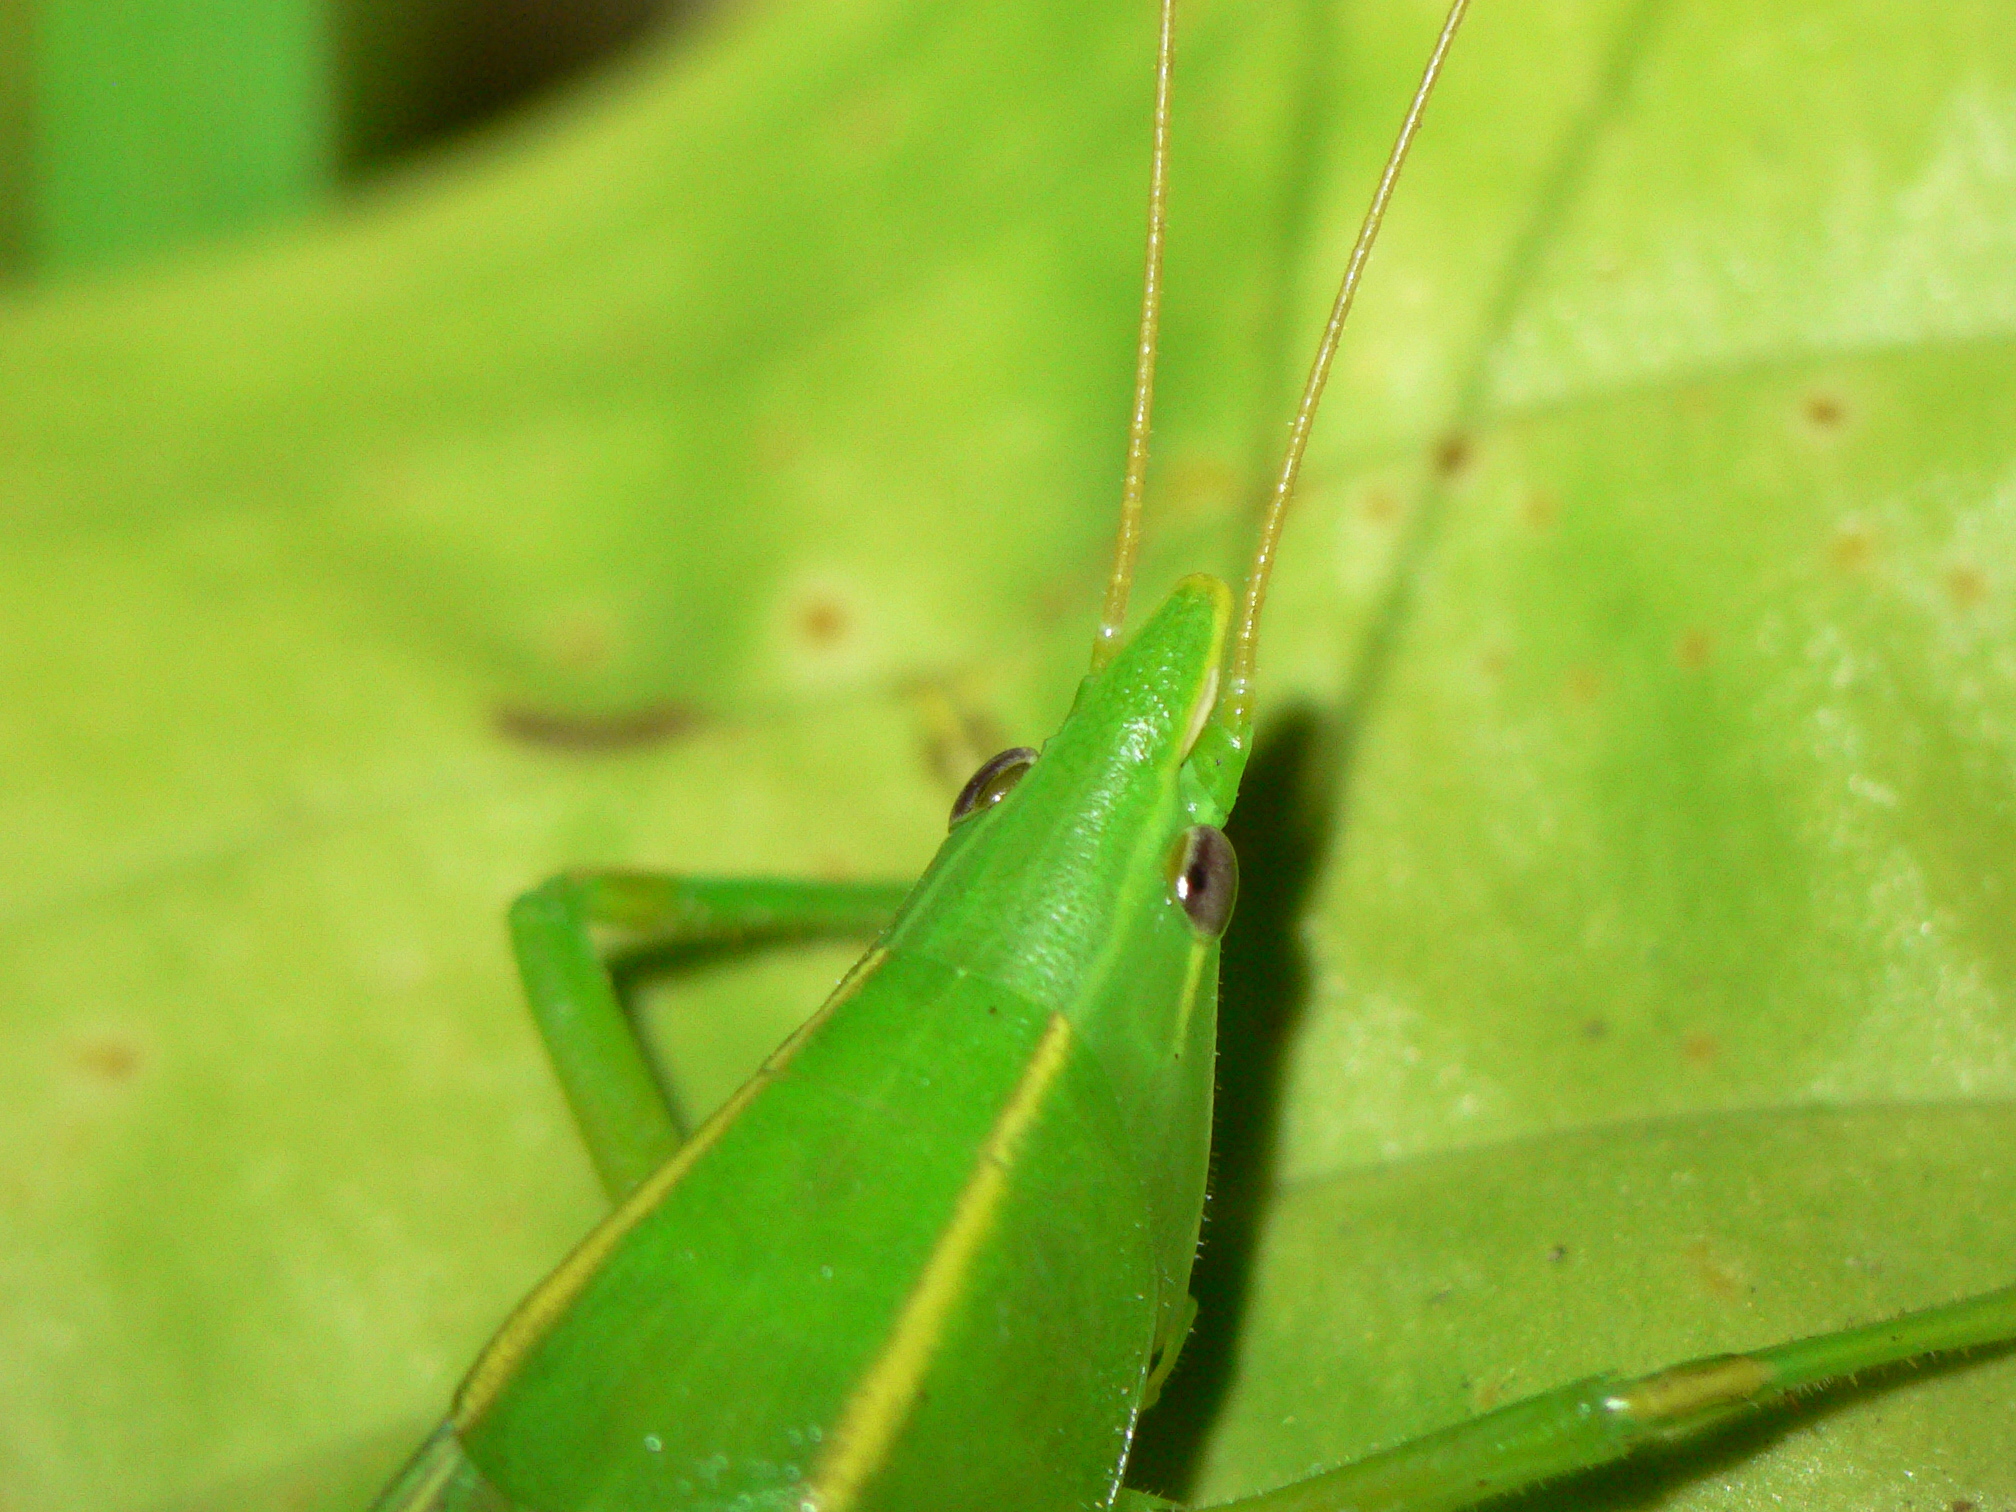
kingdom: Animalia
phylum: Arthropoda
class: Insecta
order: Orthoptera
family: Tettigoniidae
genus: Neoconocephalus
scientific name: Neoconocephalus robustus
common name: Robust conehead
